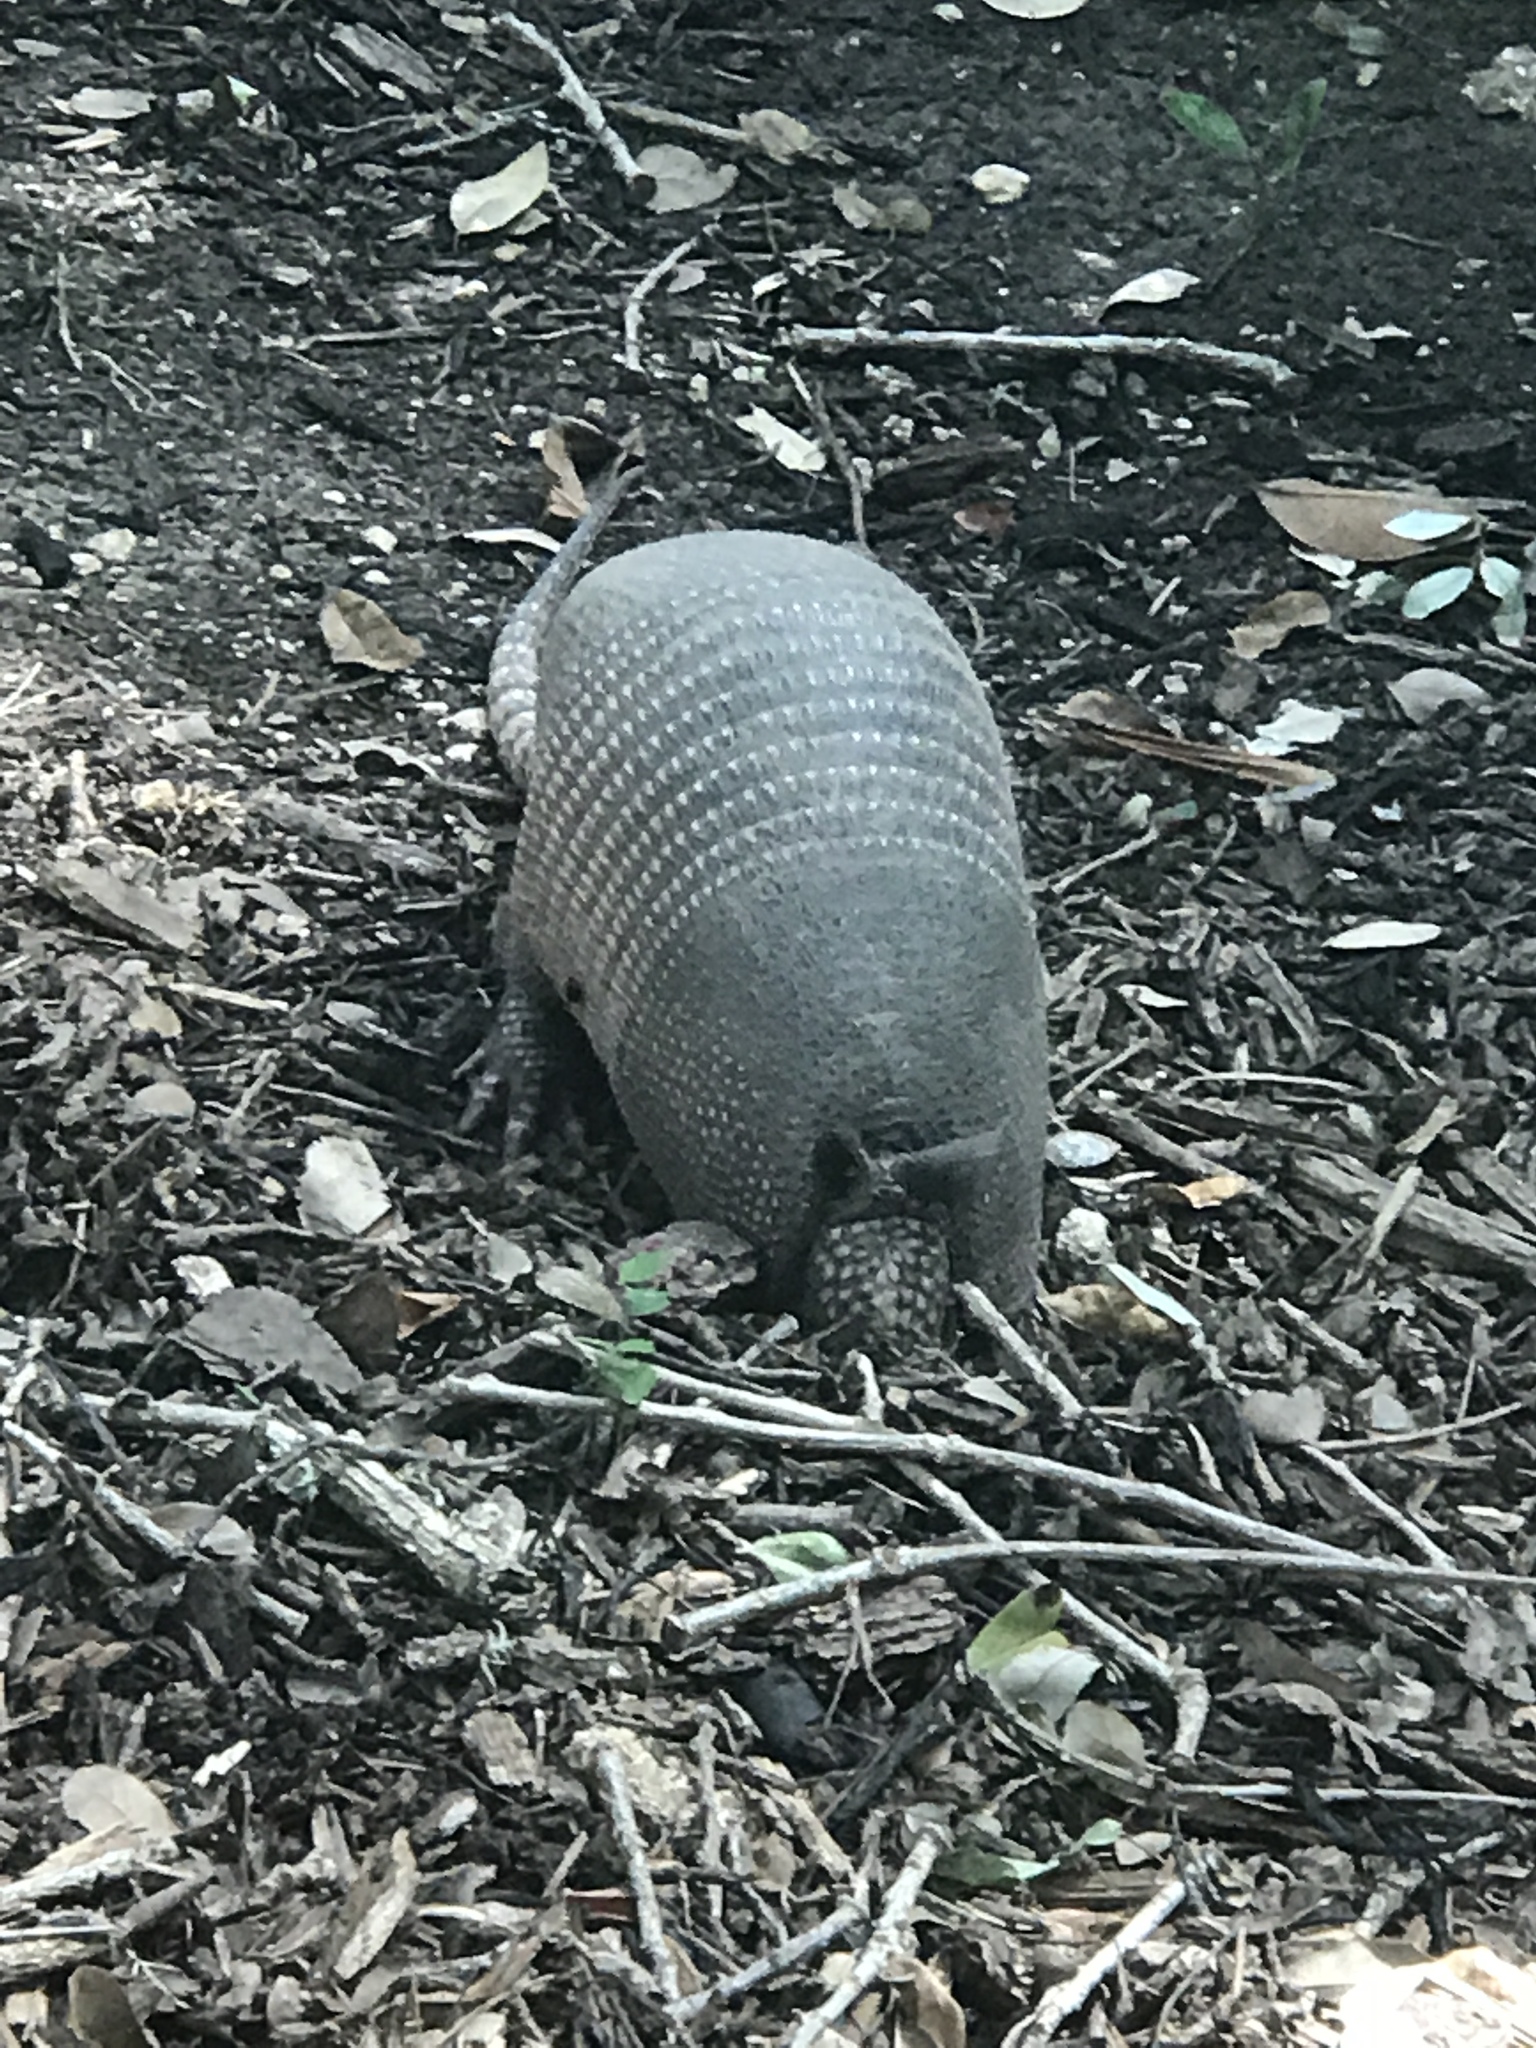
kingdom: Animalia
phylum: Chordata
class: Mammalia
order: Cingulata
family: Dasypodidae
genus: Dasypus
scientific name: Dasypus novemcinctus
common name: Nine-banded armadillo
